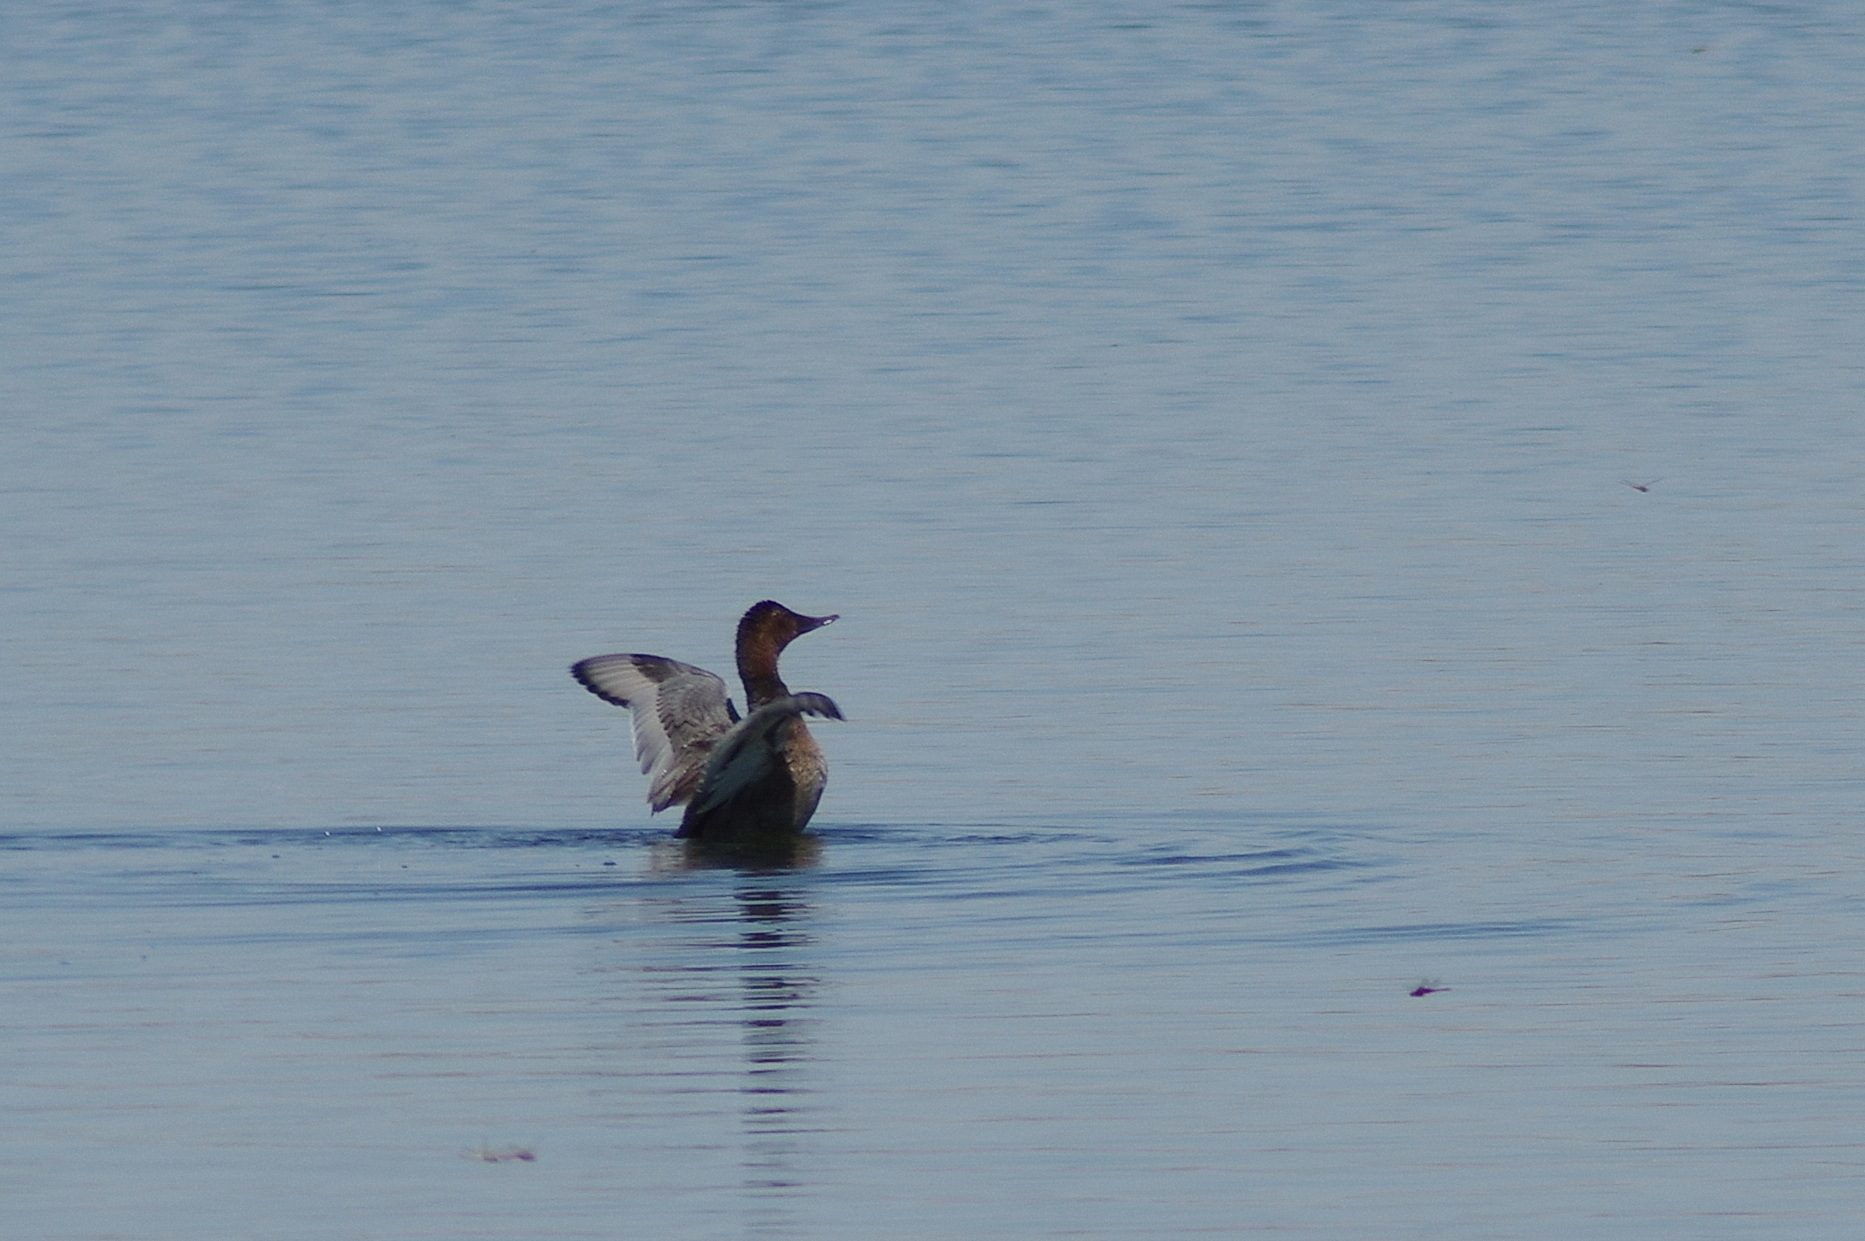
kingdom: Animalia
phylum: Chordata
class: Aves
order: Anseriformes
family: Anatidae
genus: Aythya
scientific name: Aythya ferina
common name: Common pochard
